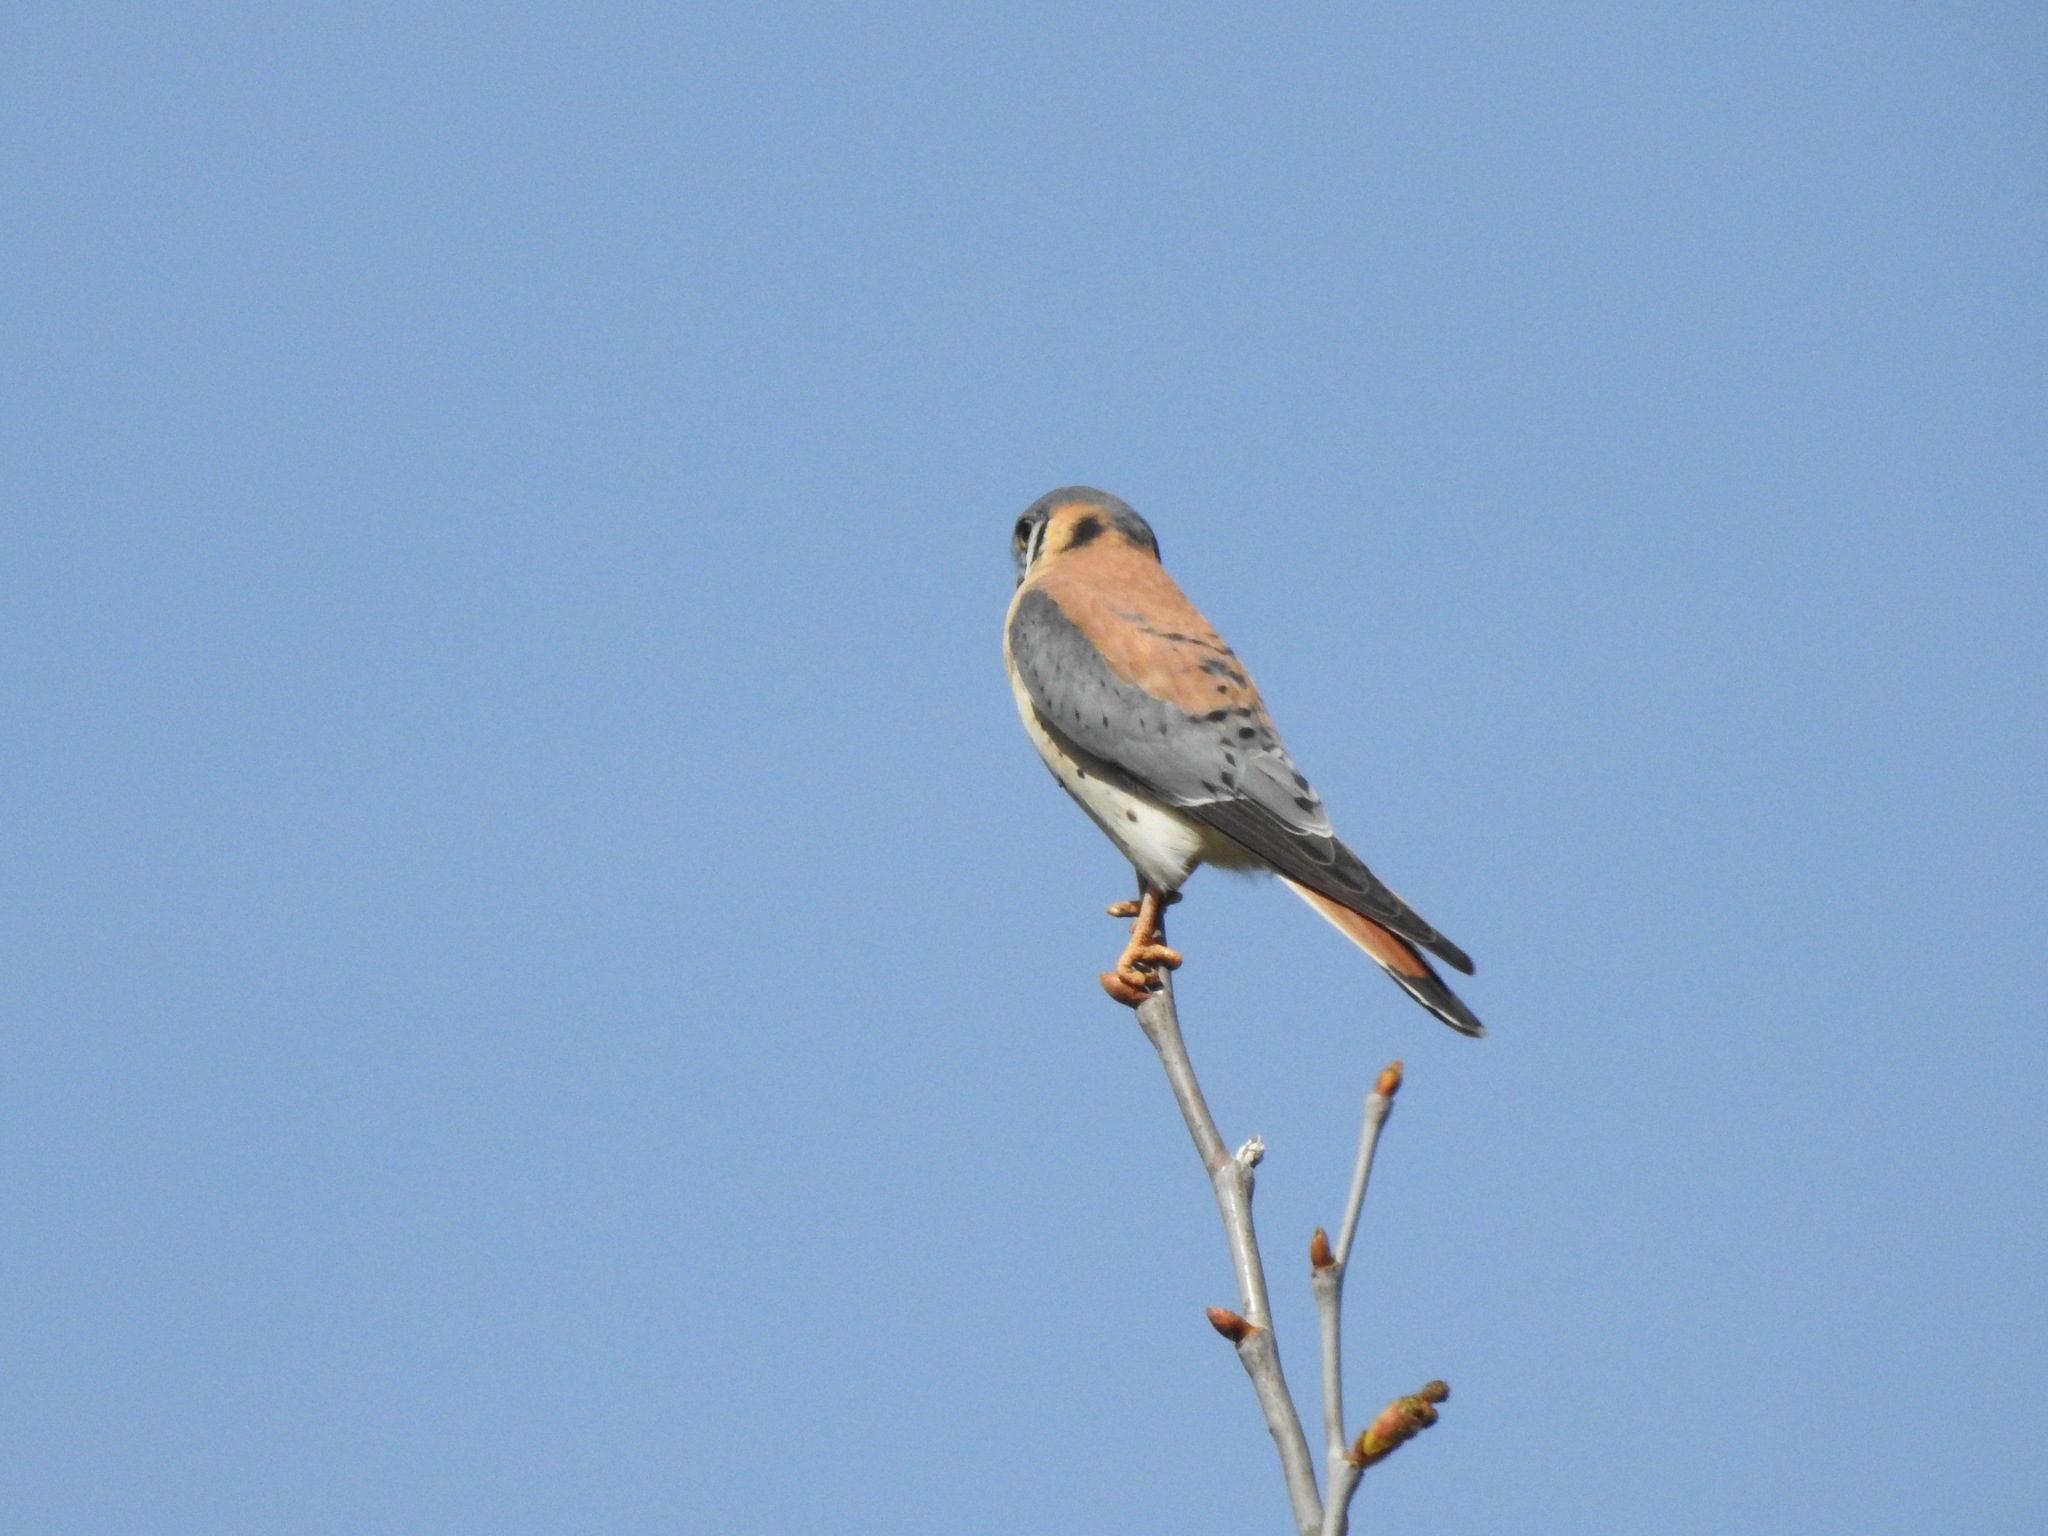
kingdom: Animalia
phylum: Chordata
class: Aves
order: Falconiformes
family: Falconidae
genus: Falco
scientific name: Falco sparverius
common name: American kestrel
